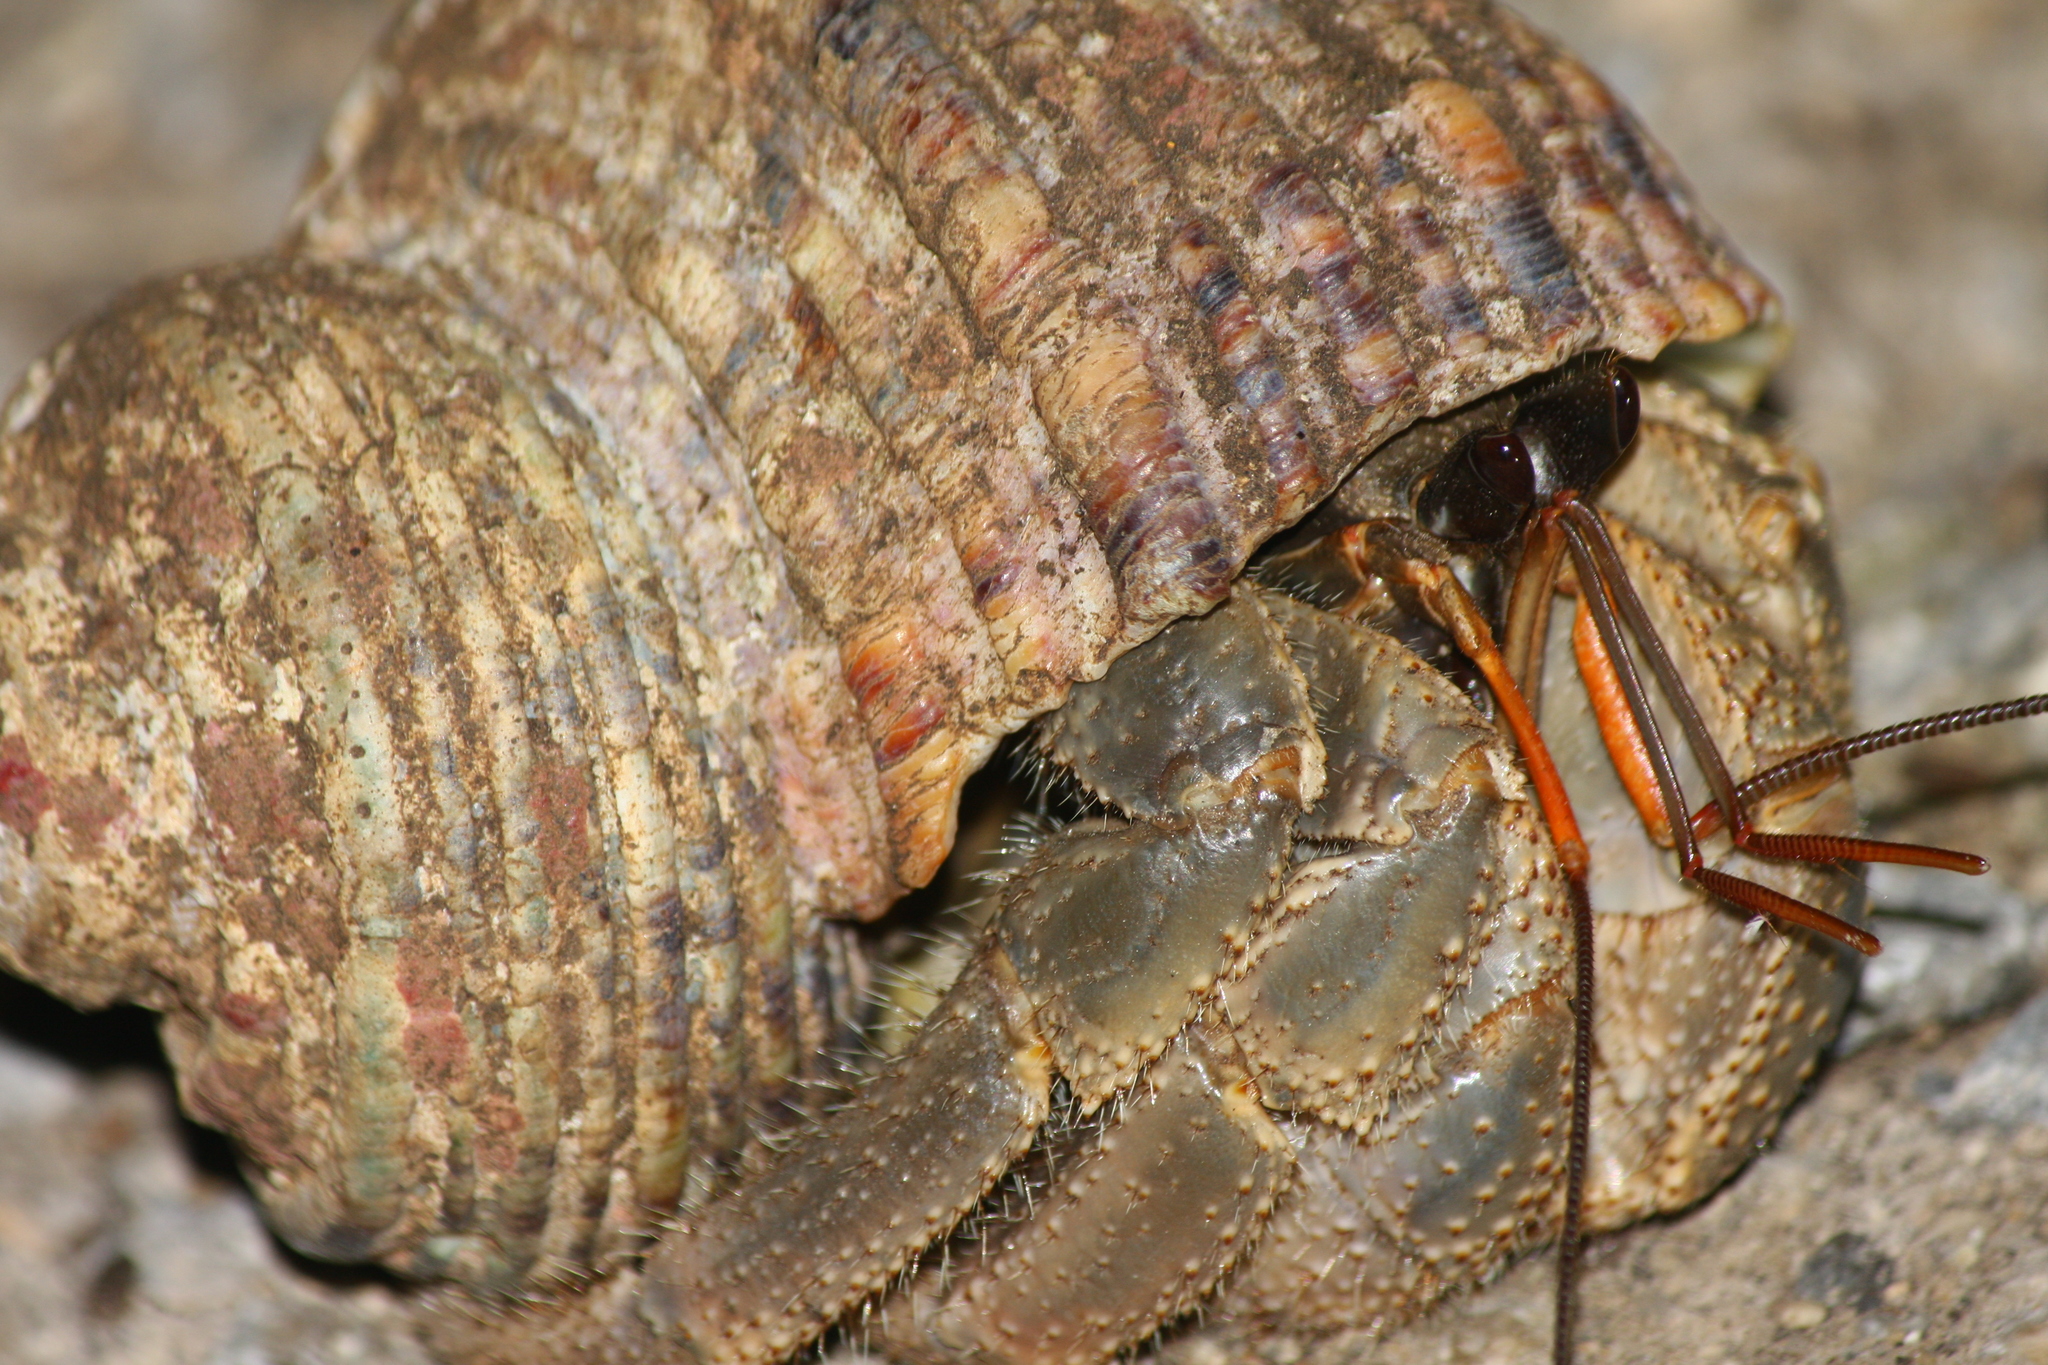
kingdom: Animalia
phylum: Arthropoda
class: Malacostraca
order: Decapoda
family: Coenobitidae
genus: Coenobita
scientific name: Coenobita cavipes
